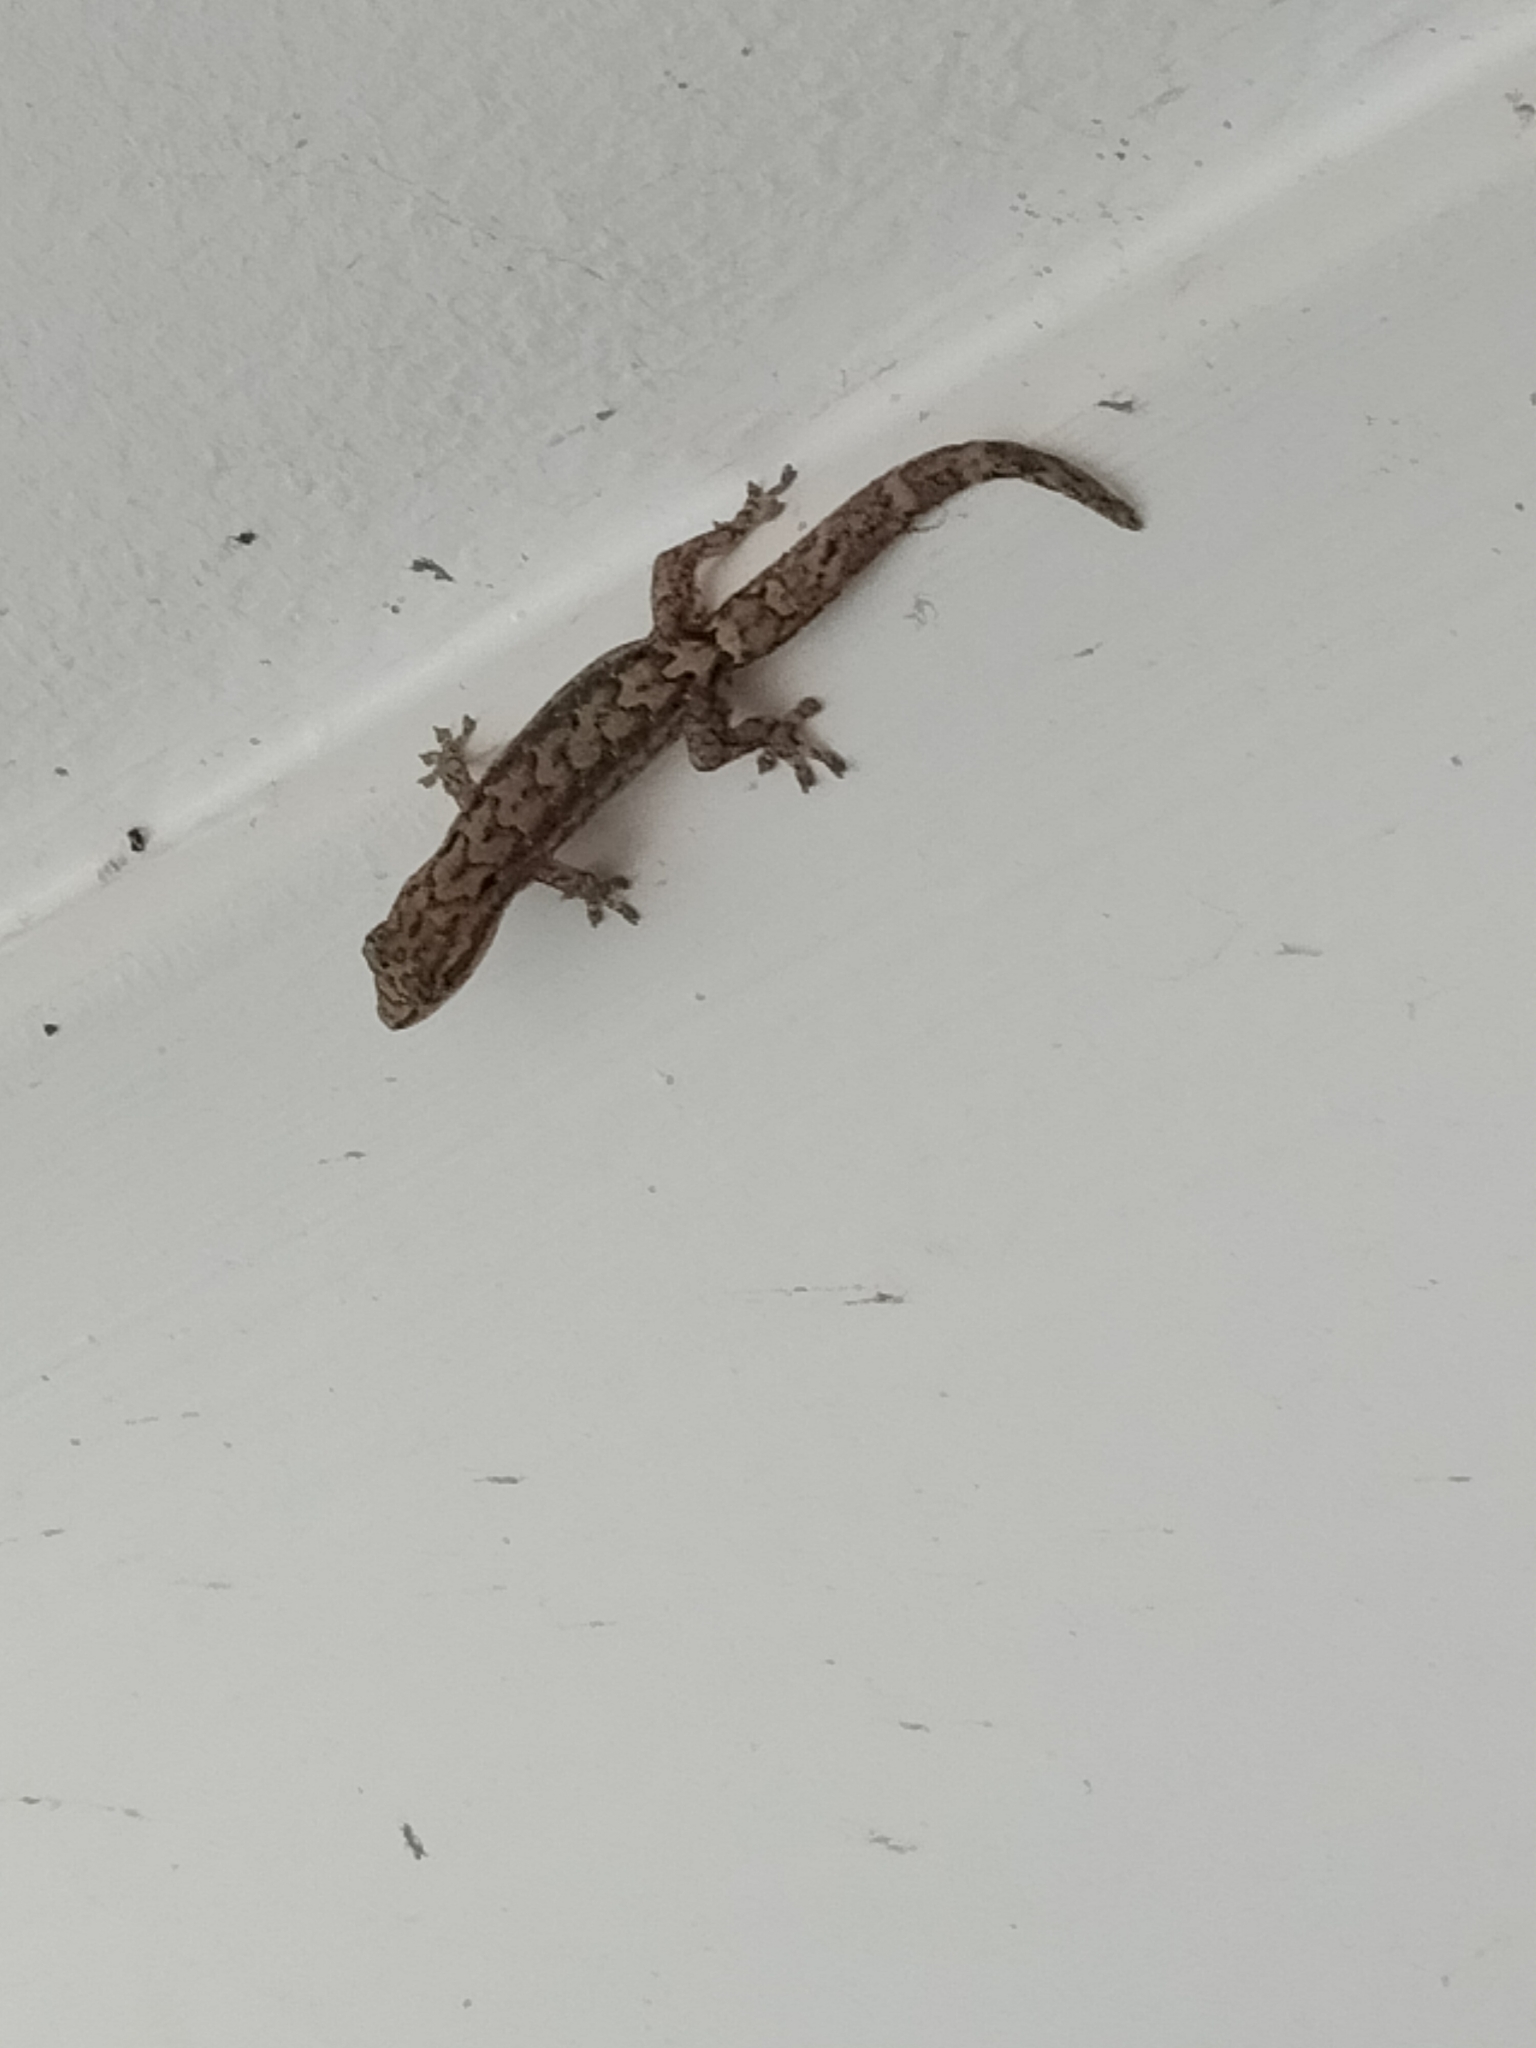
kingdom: Animalia
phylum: Chordata
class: Squamata
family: Gekkonidae
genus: Lepidodactylus
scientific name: Lepidodactylus lugubris
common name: Mourning gecko
